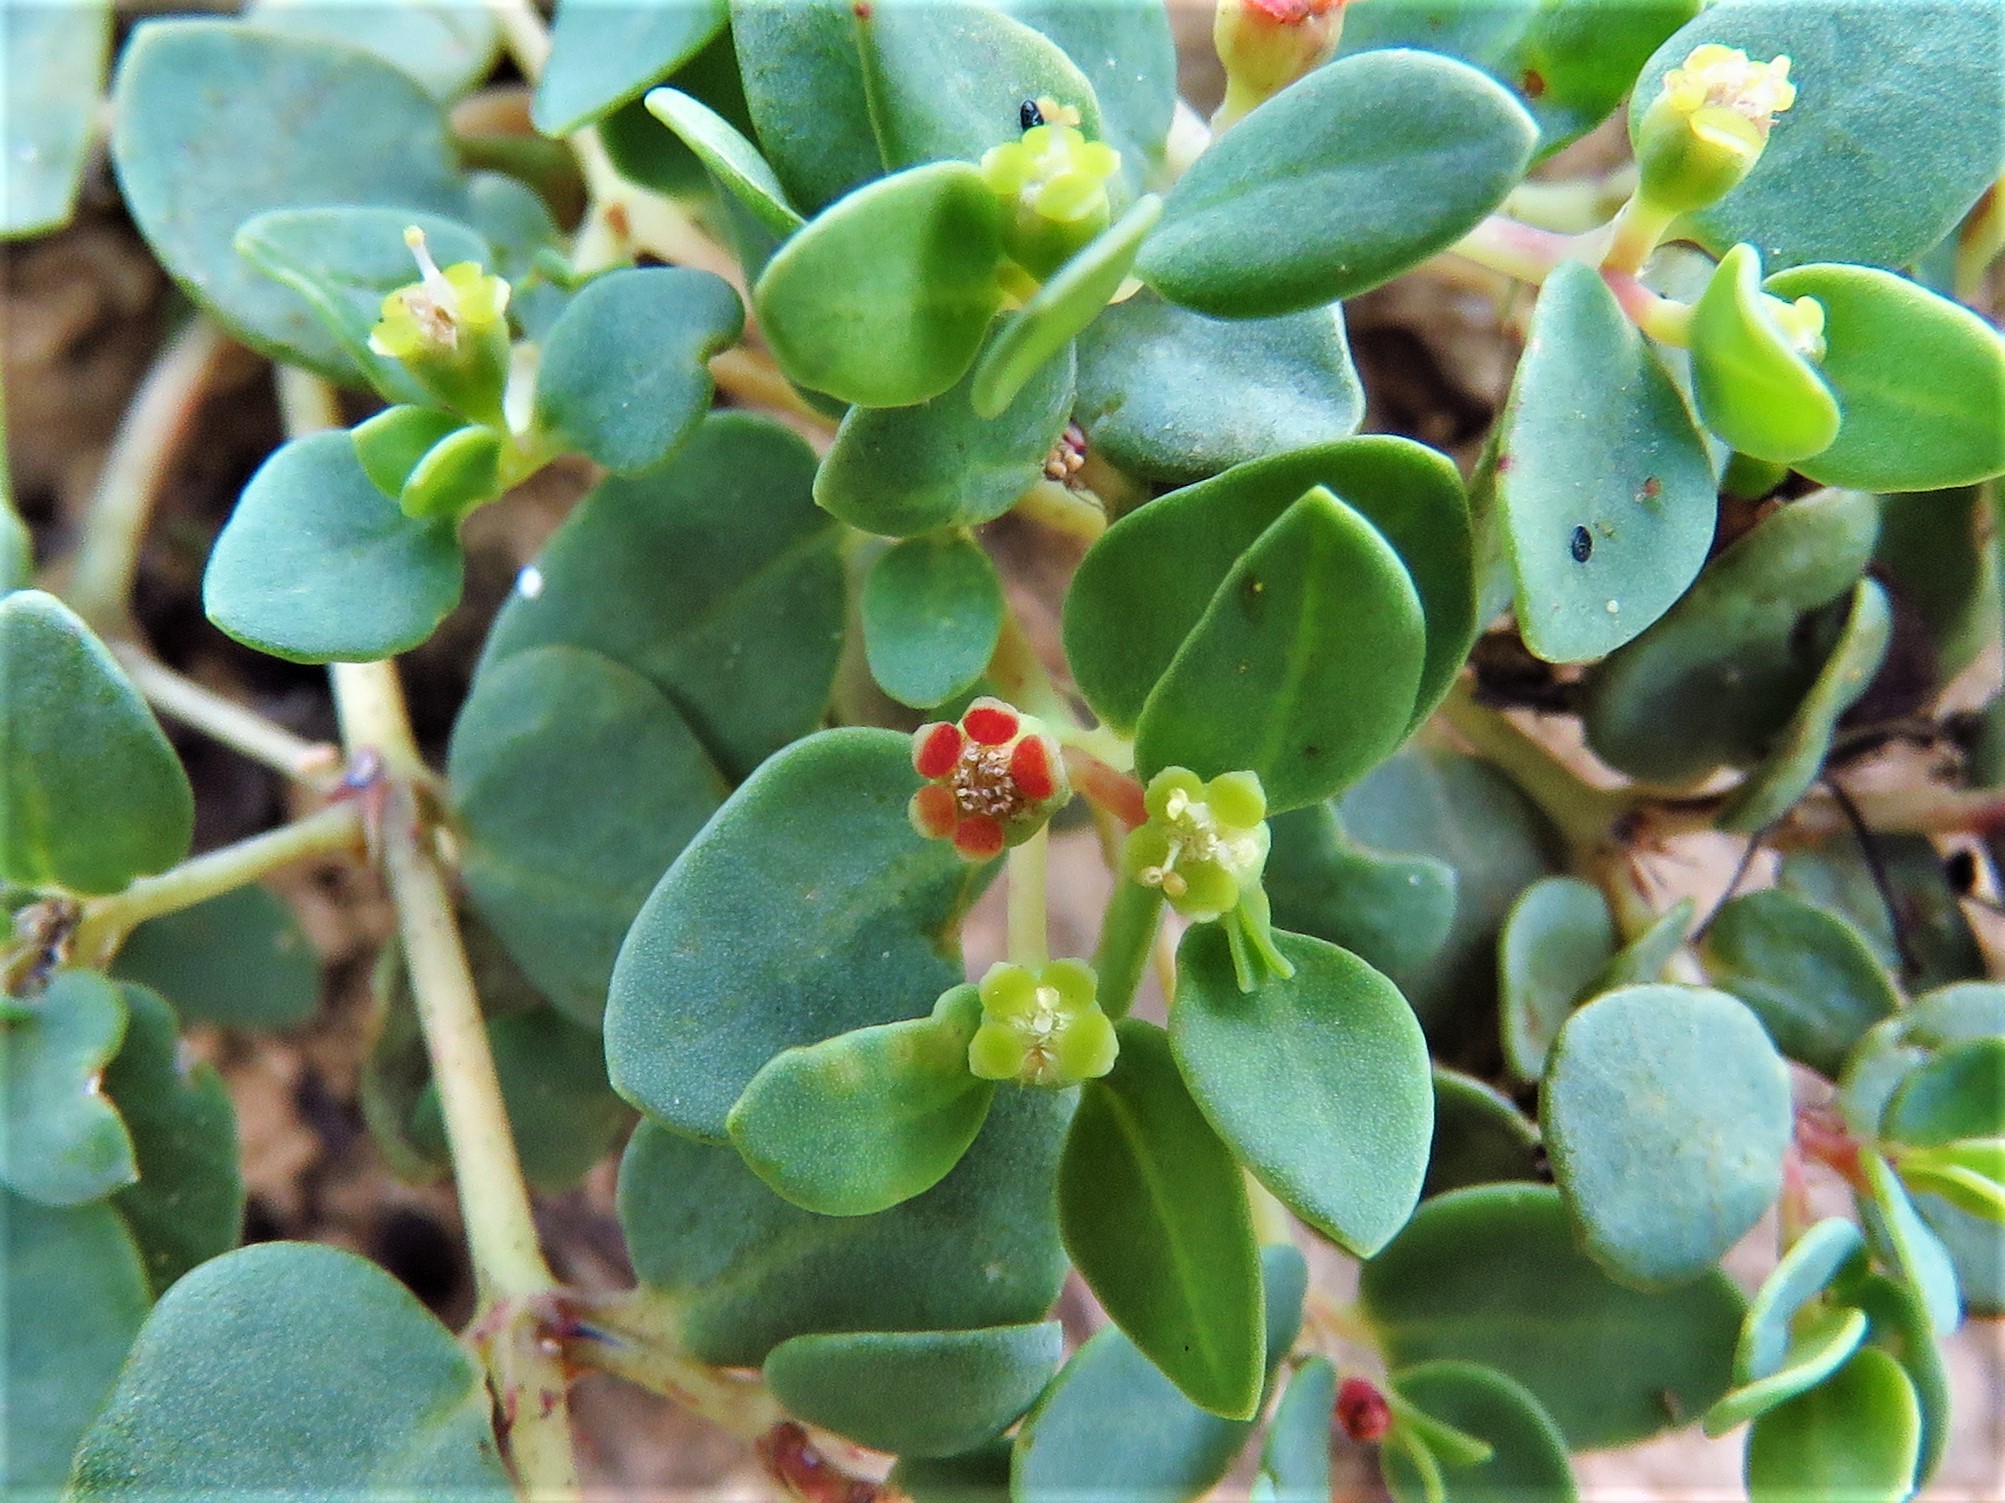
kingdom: Plantae
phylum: Tracheophyta
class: Magnoliopsida
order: Malpighiales
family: Euphorbiaceae
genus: Euphorbia
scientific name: Euphorbia fendleri
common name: Fendler's euphorbia
